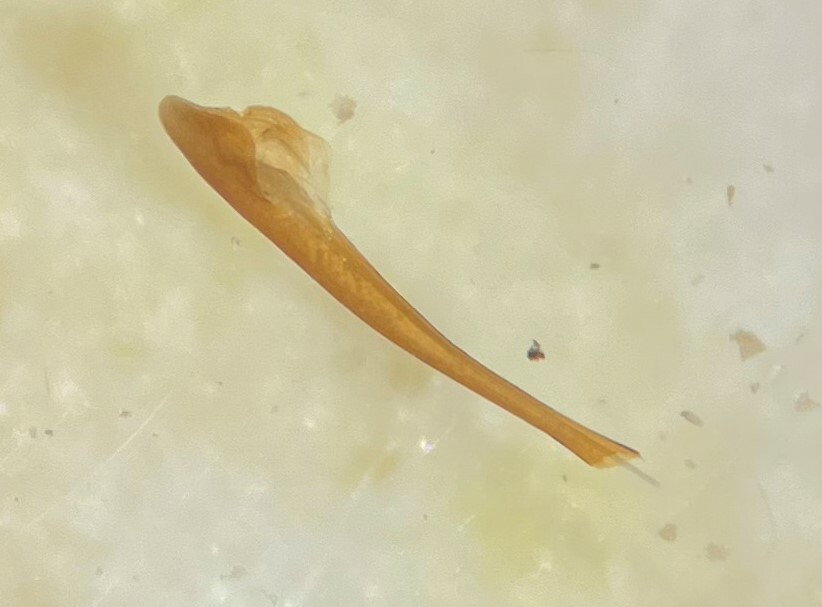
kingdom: Animalia
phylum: Arthropoda
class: Insecta
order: Coleoptera
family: Ptilodactylidae
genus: Ptilodactyla
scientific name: Ptilodactyla serricollis
